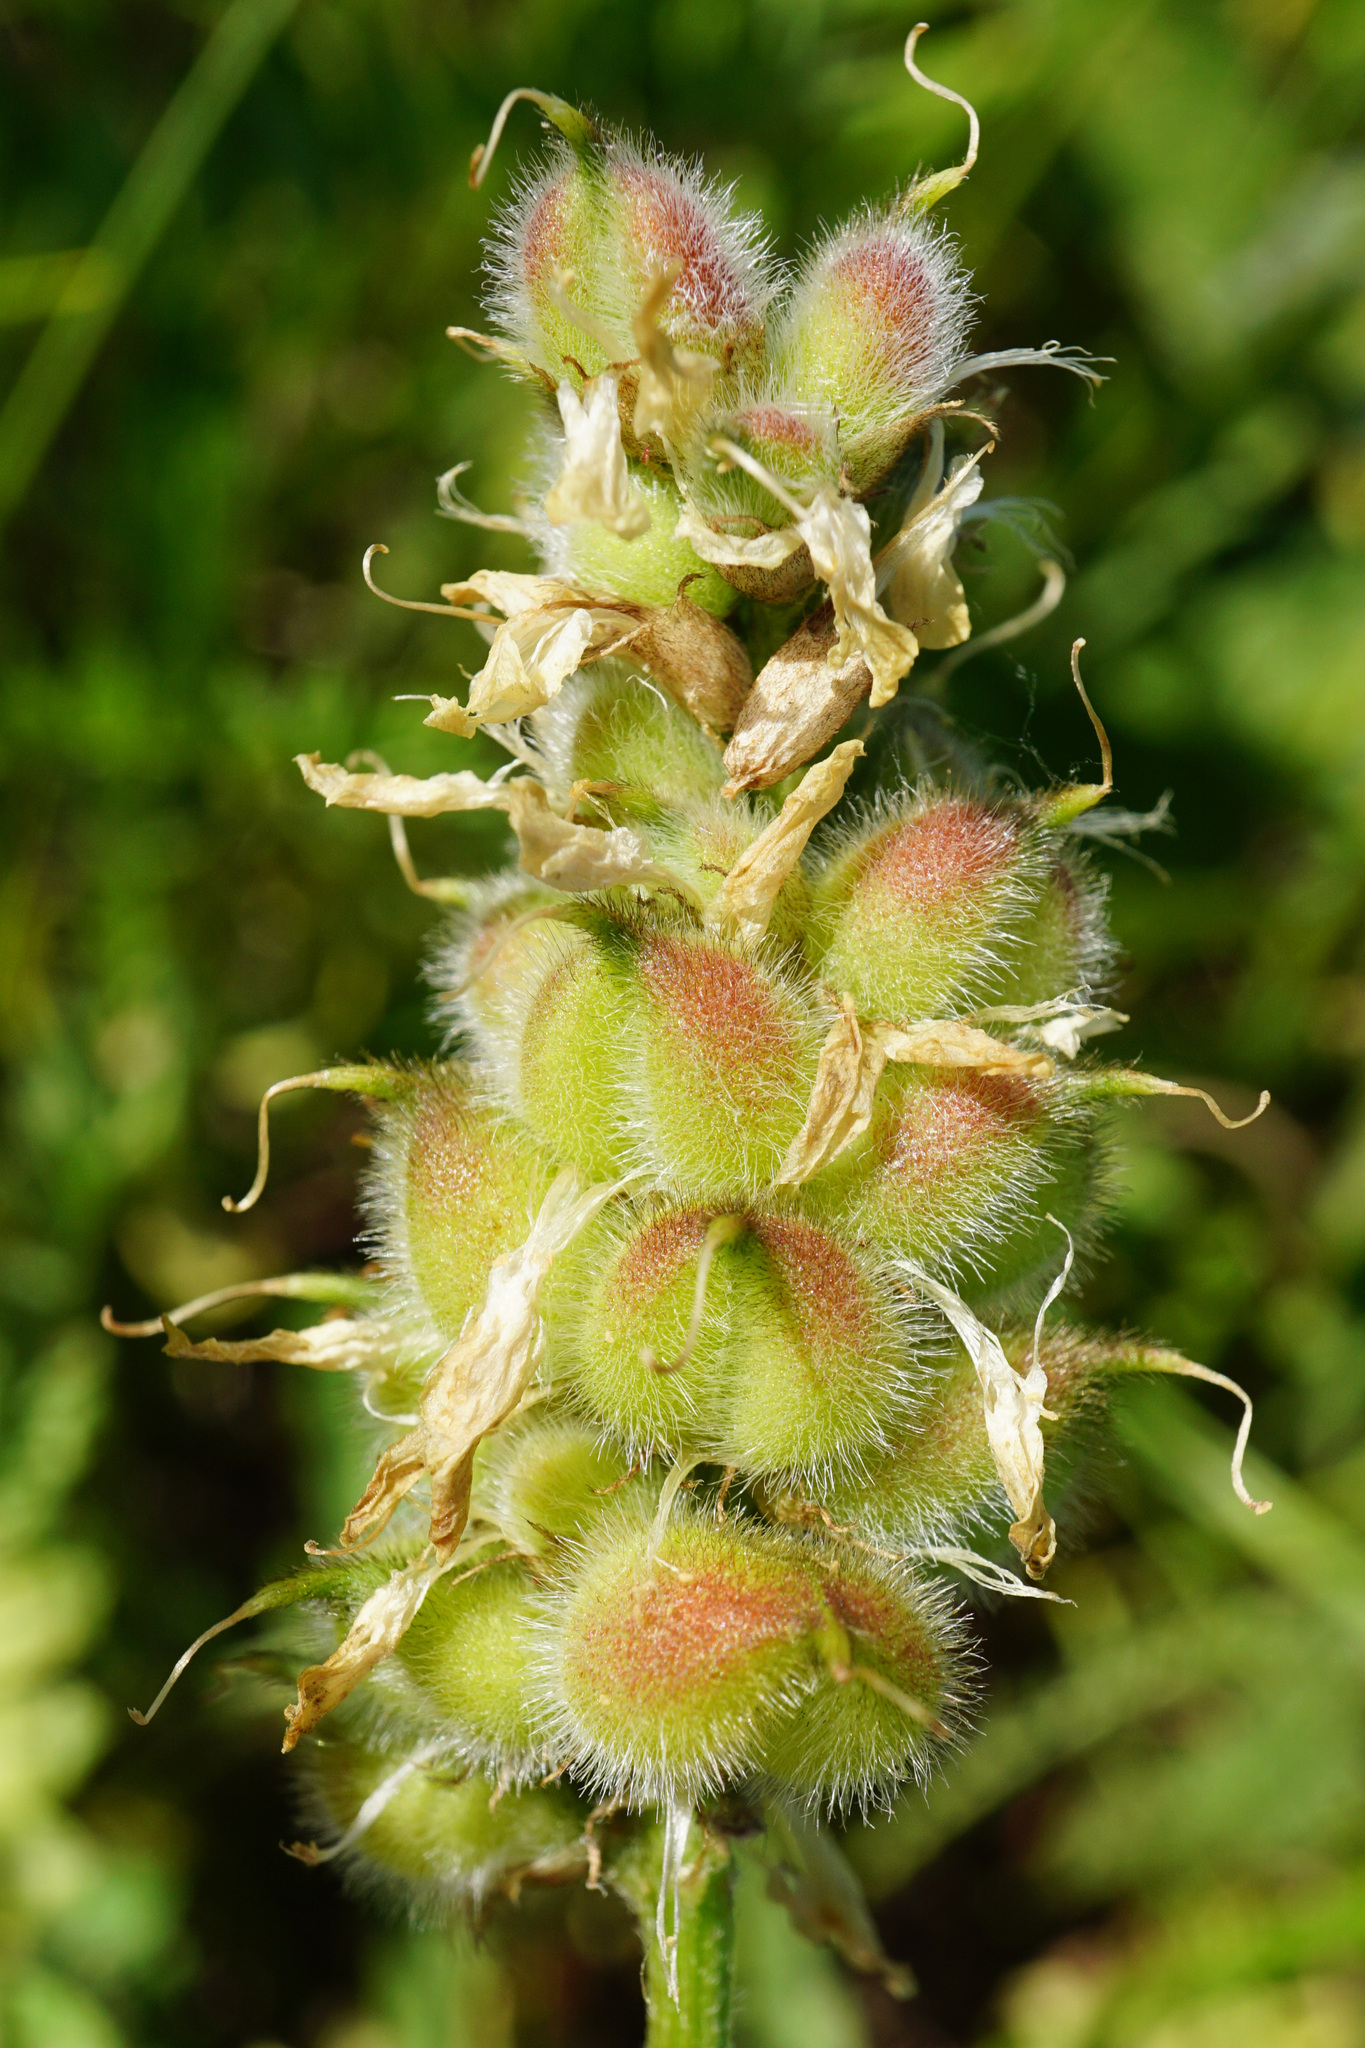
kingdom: Plantae
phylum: Tracheophyta
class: Magnoliopsida
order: Fabales
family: Fabaceae
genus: Astragalus
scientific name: Astragalus cicer
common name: Chick-pea milk-vetch
